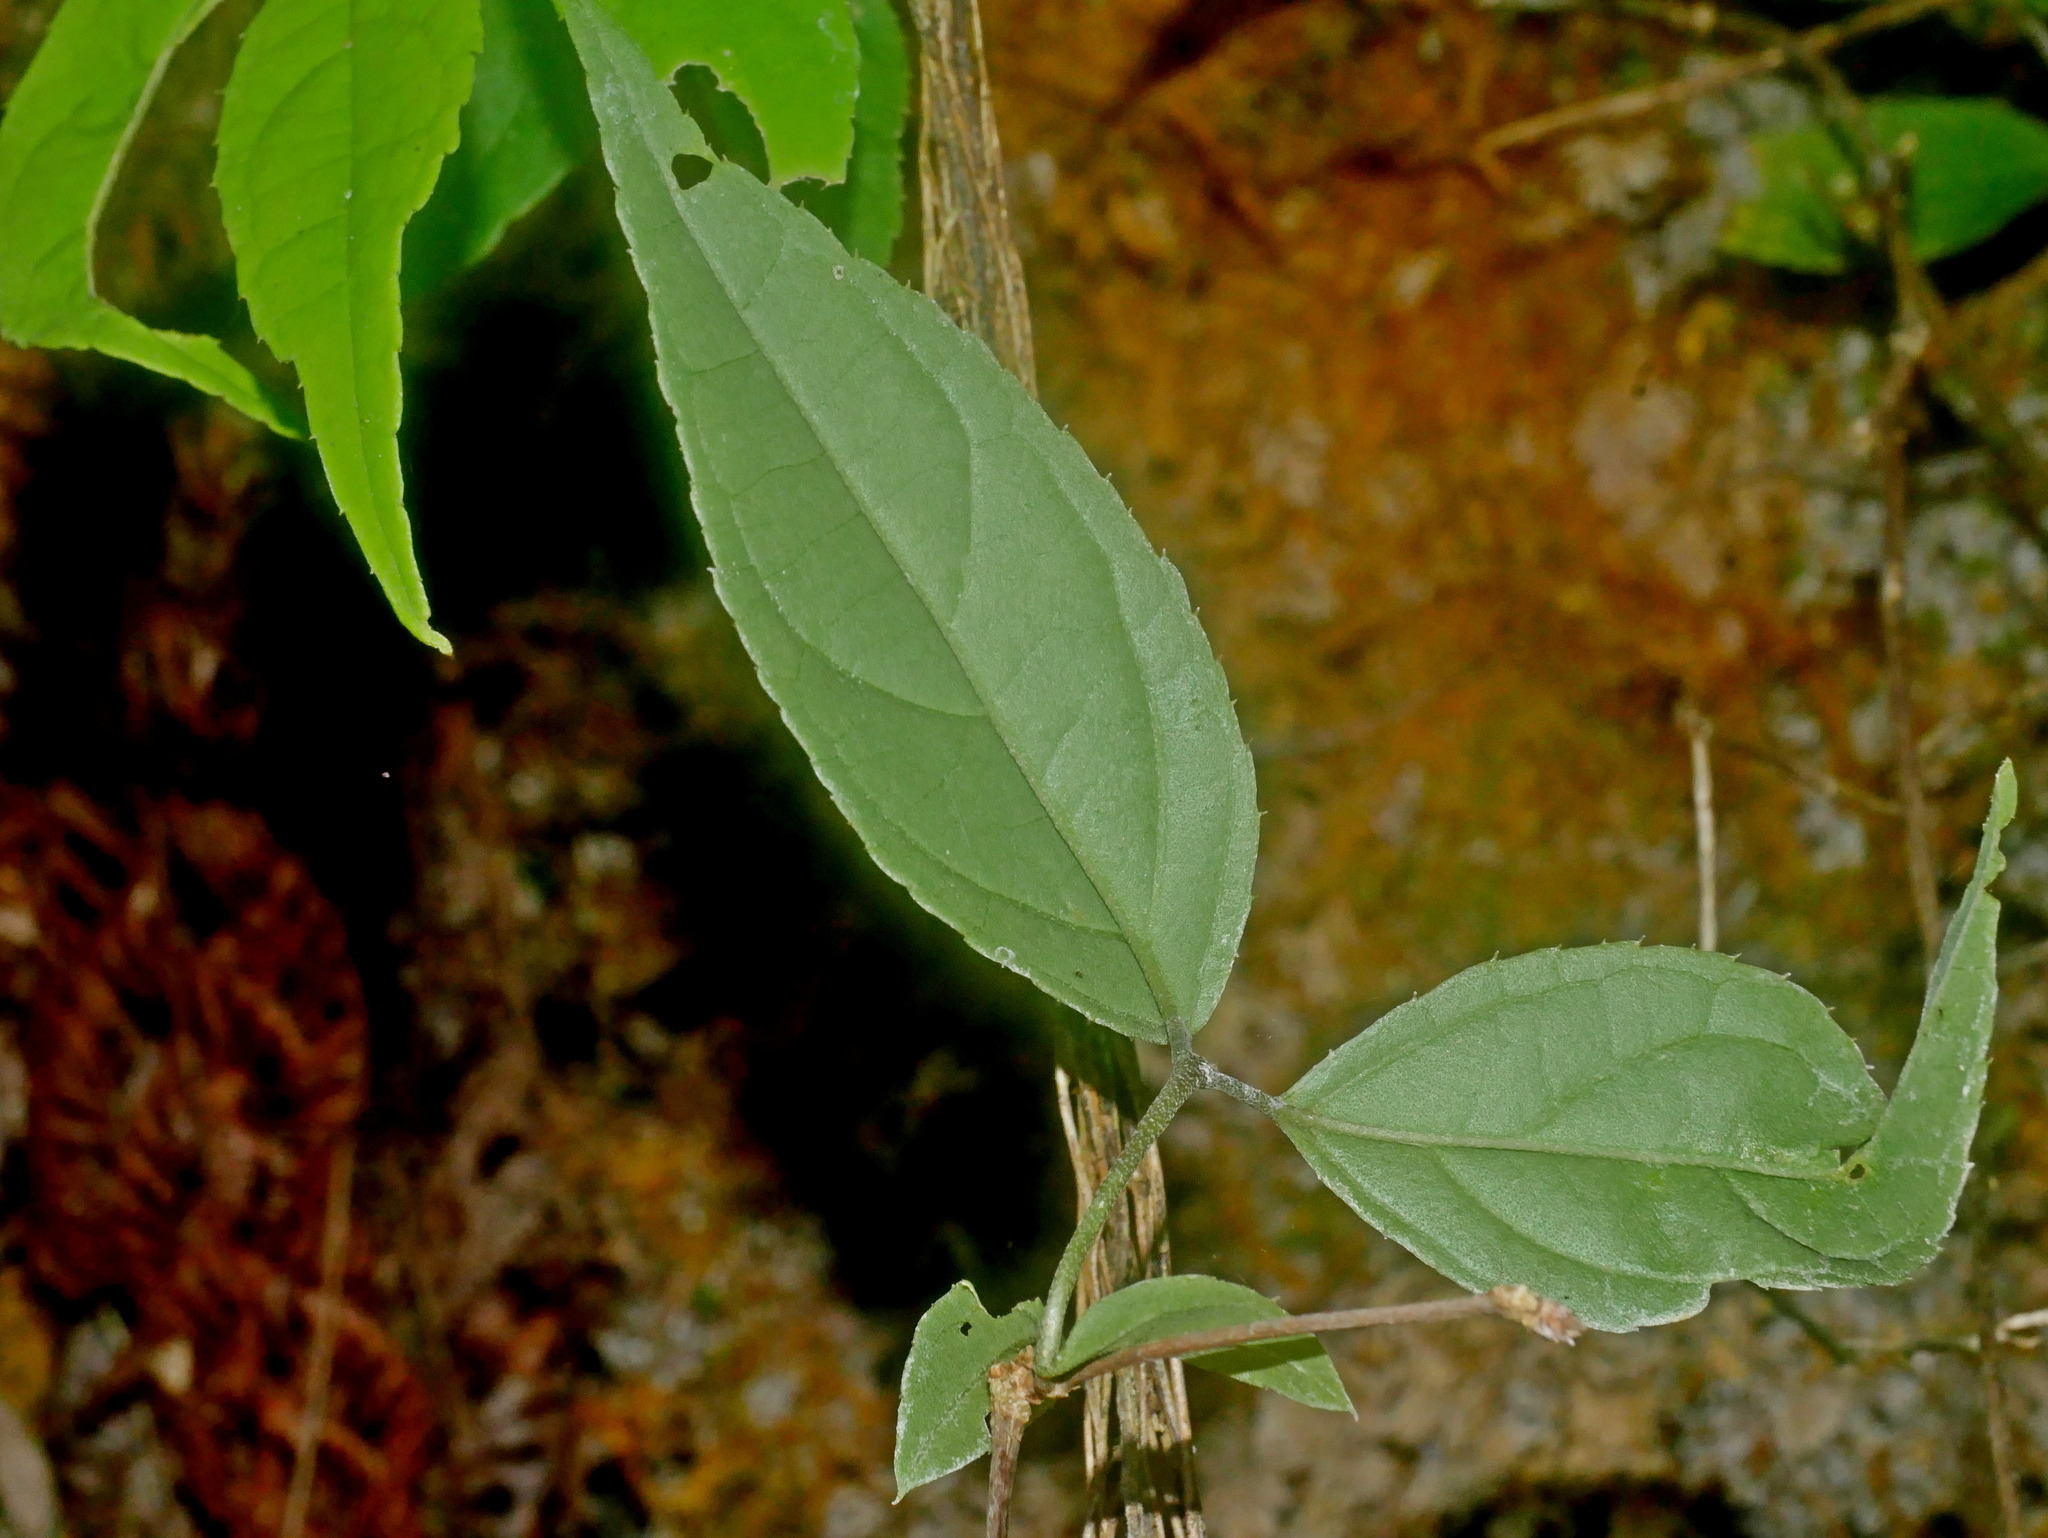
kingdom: Plantae
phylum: Tracheophyta
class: Magnoliopsida
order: Cornales
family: Hydrangeaceae
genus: Deutzia
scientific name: Deutzia taiwanensis
